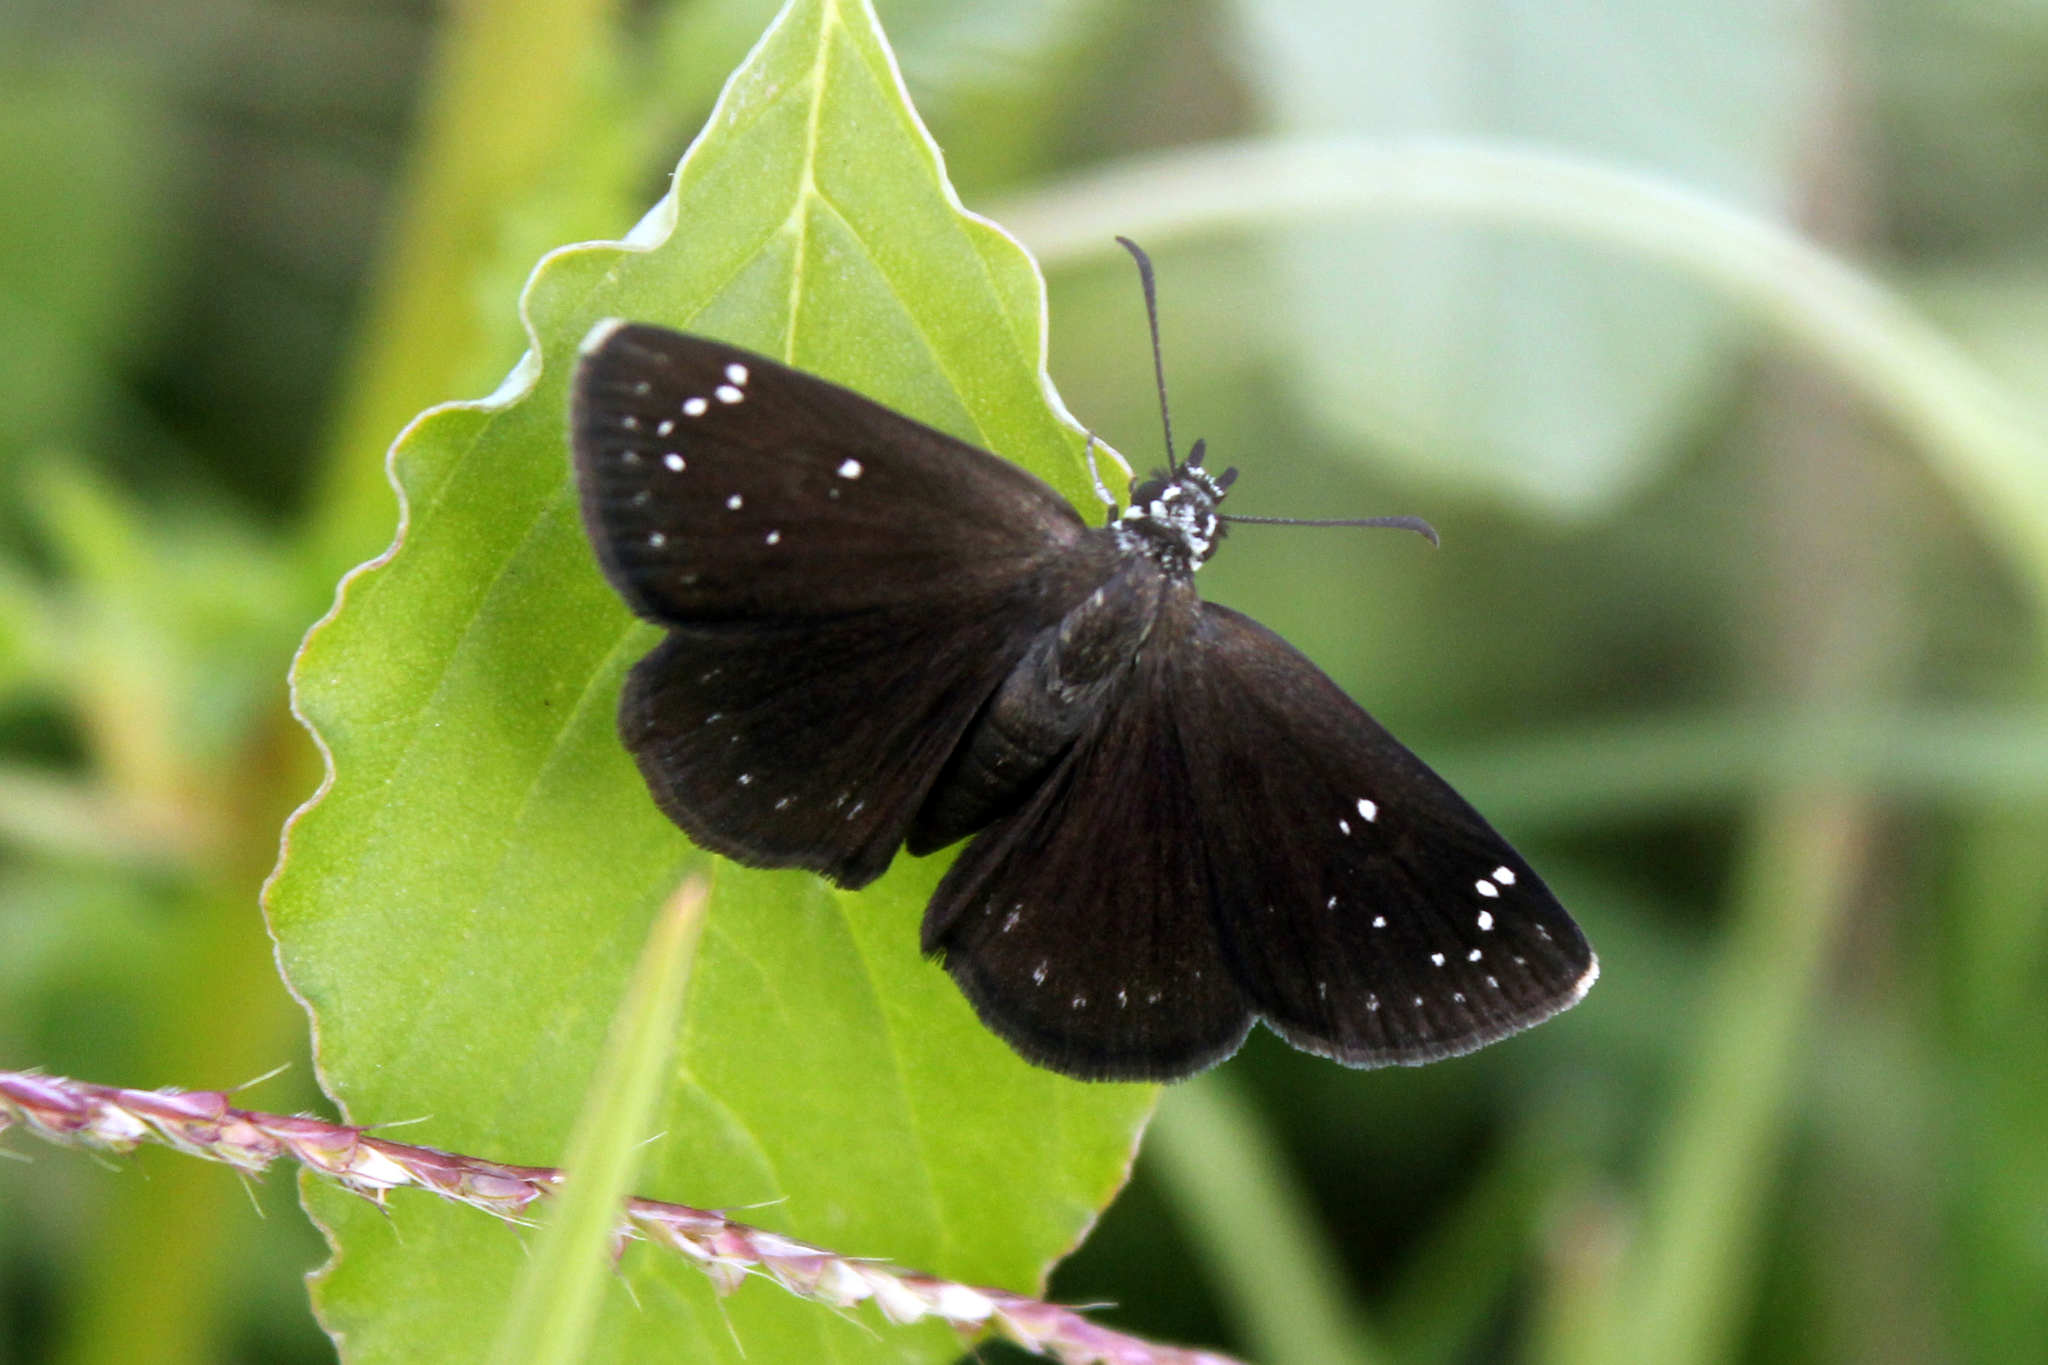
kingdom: Animalia
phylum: Arthropoda
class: Insecta
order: Lepidoptera
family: Hesperiidae
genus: Pholisora
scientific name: Pholisora catullus
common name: Common sootywing
